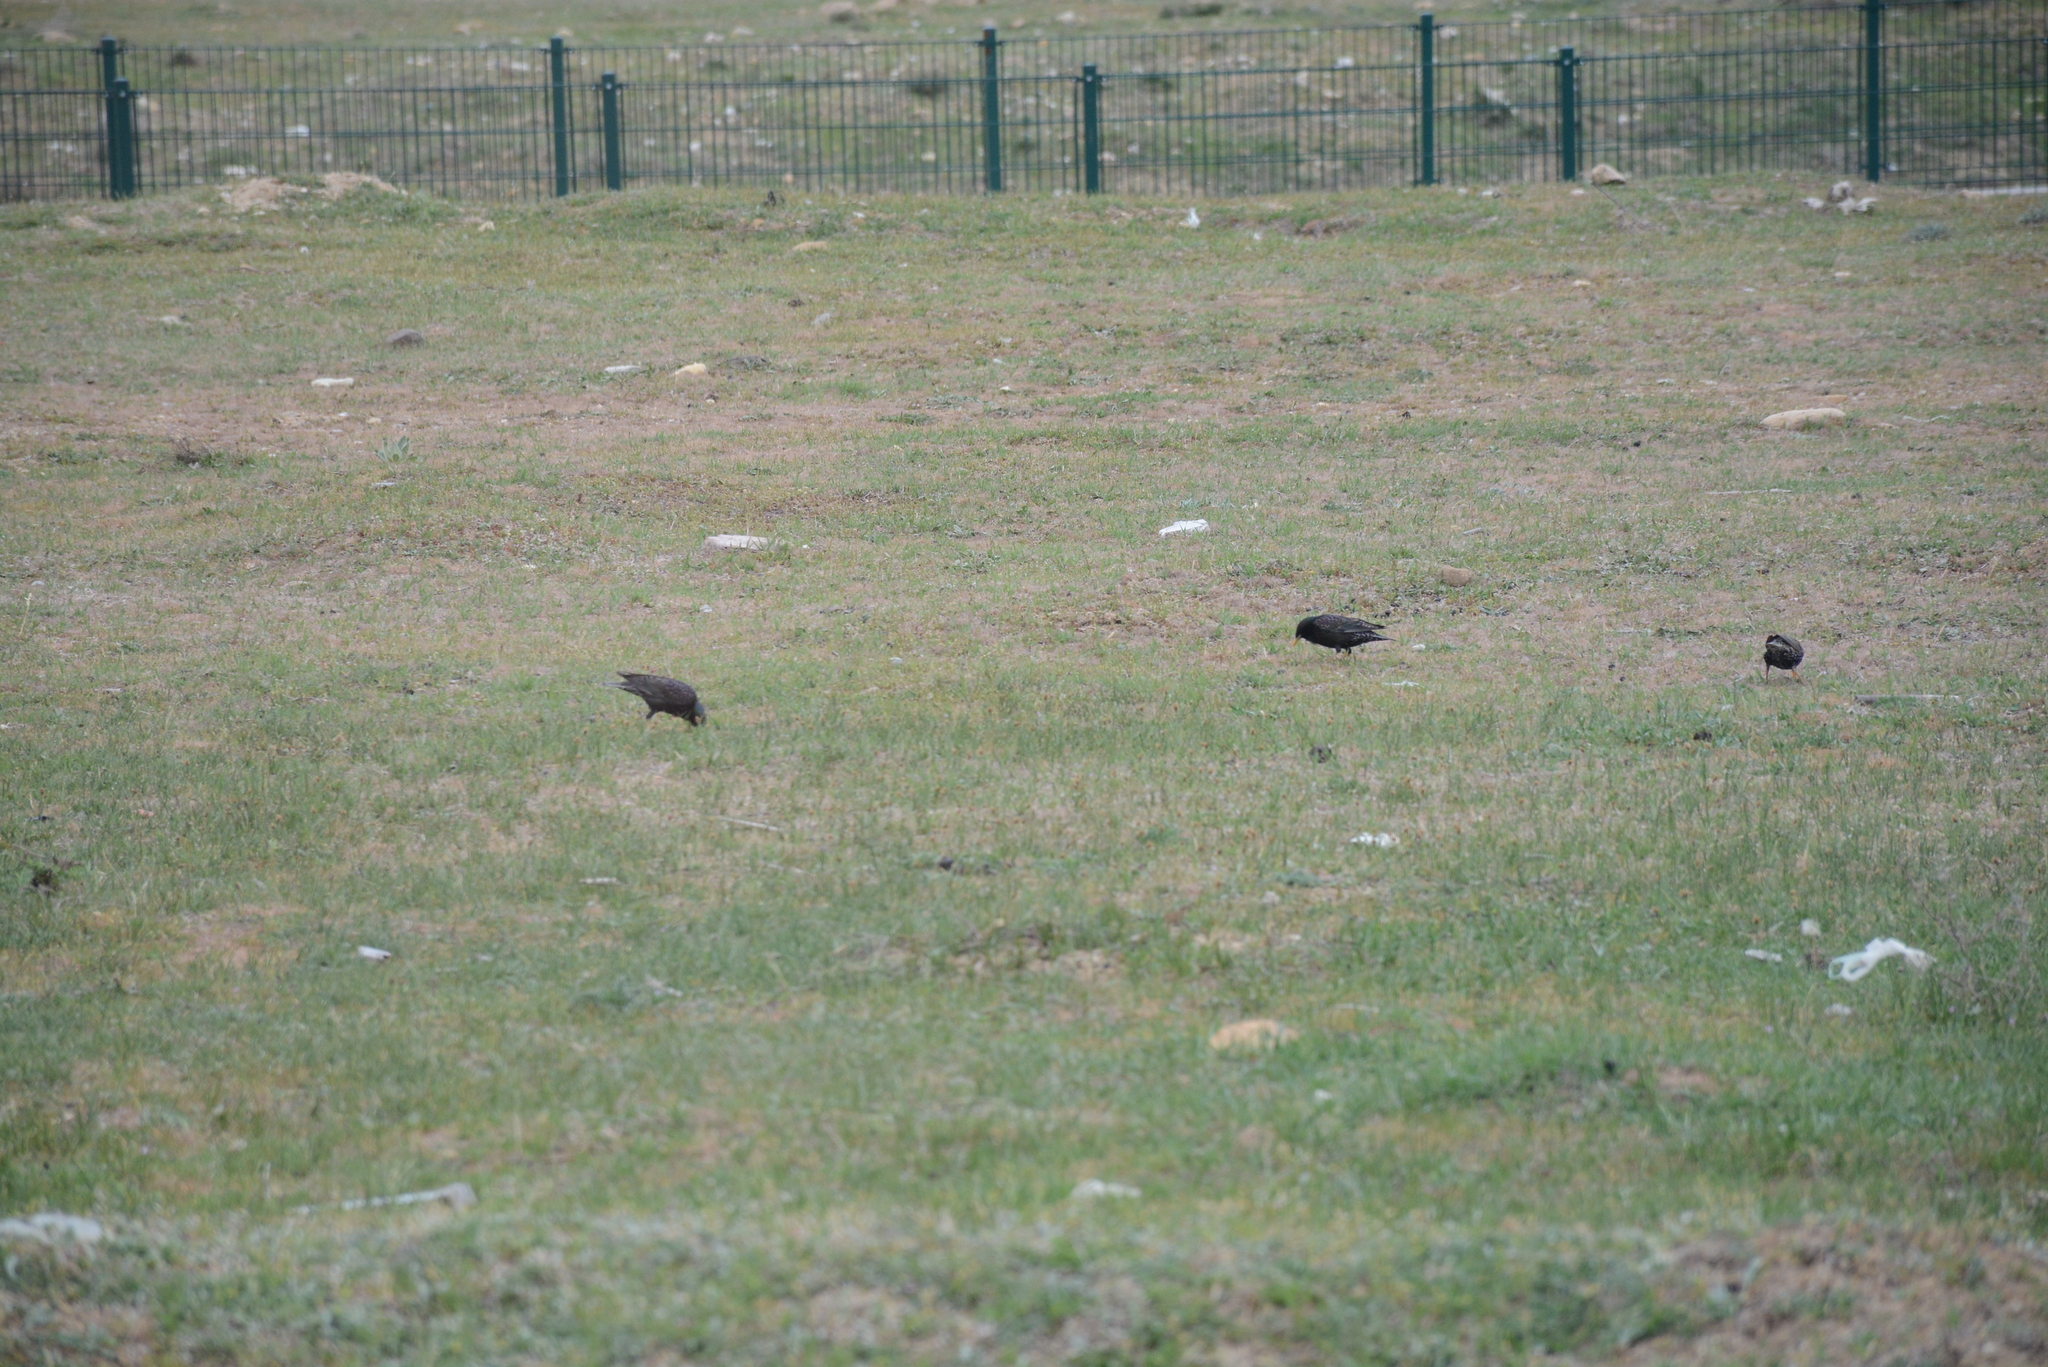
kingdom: Animalia
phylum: Chordata
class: Aves
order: Passeriformes
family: Sturnidae
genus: Sturnus
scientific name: Sturnus vulgaris
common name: Common starling
